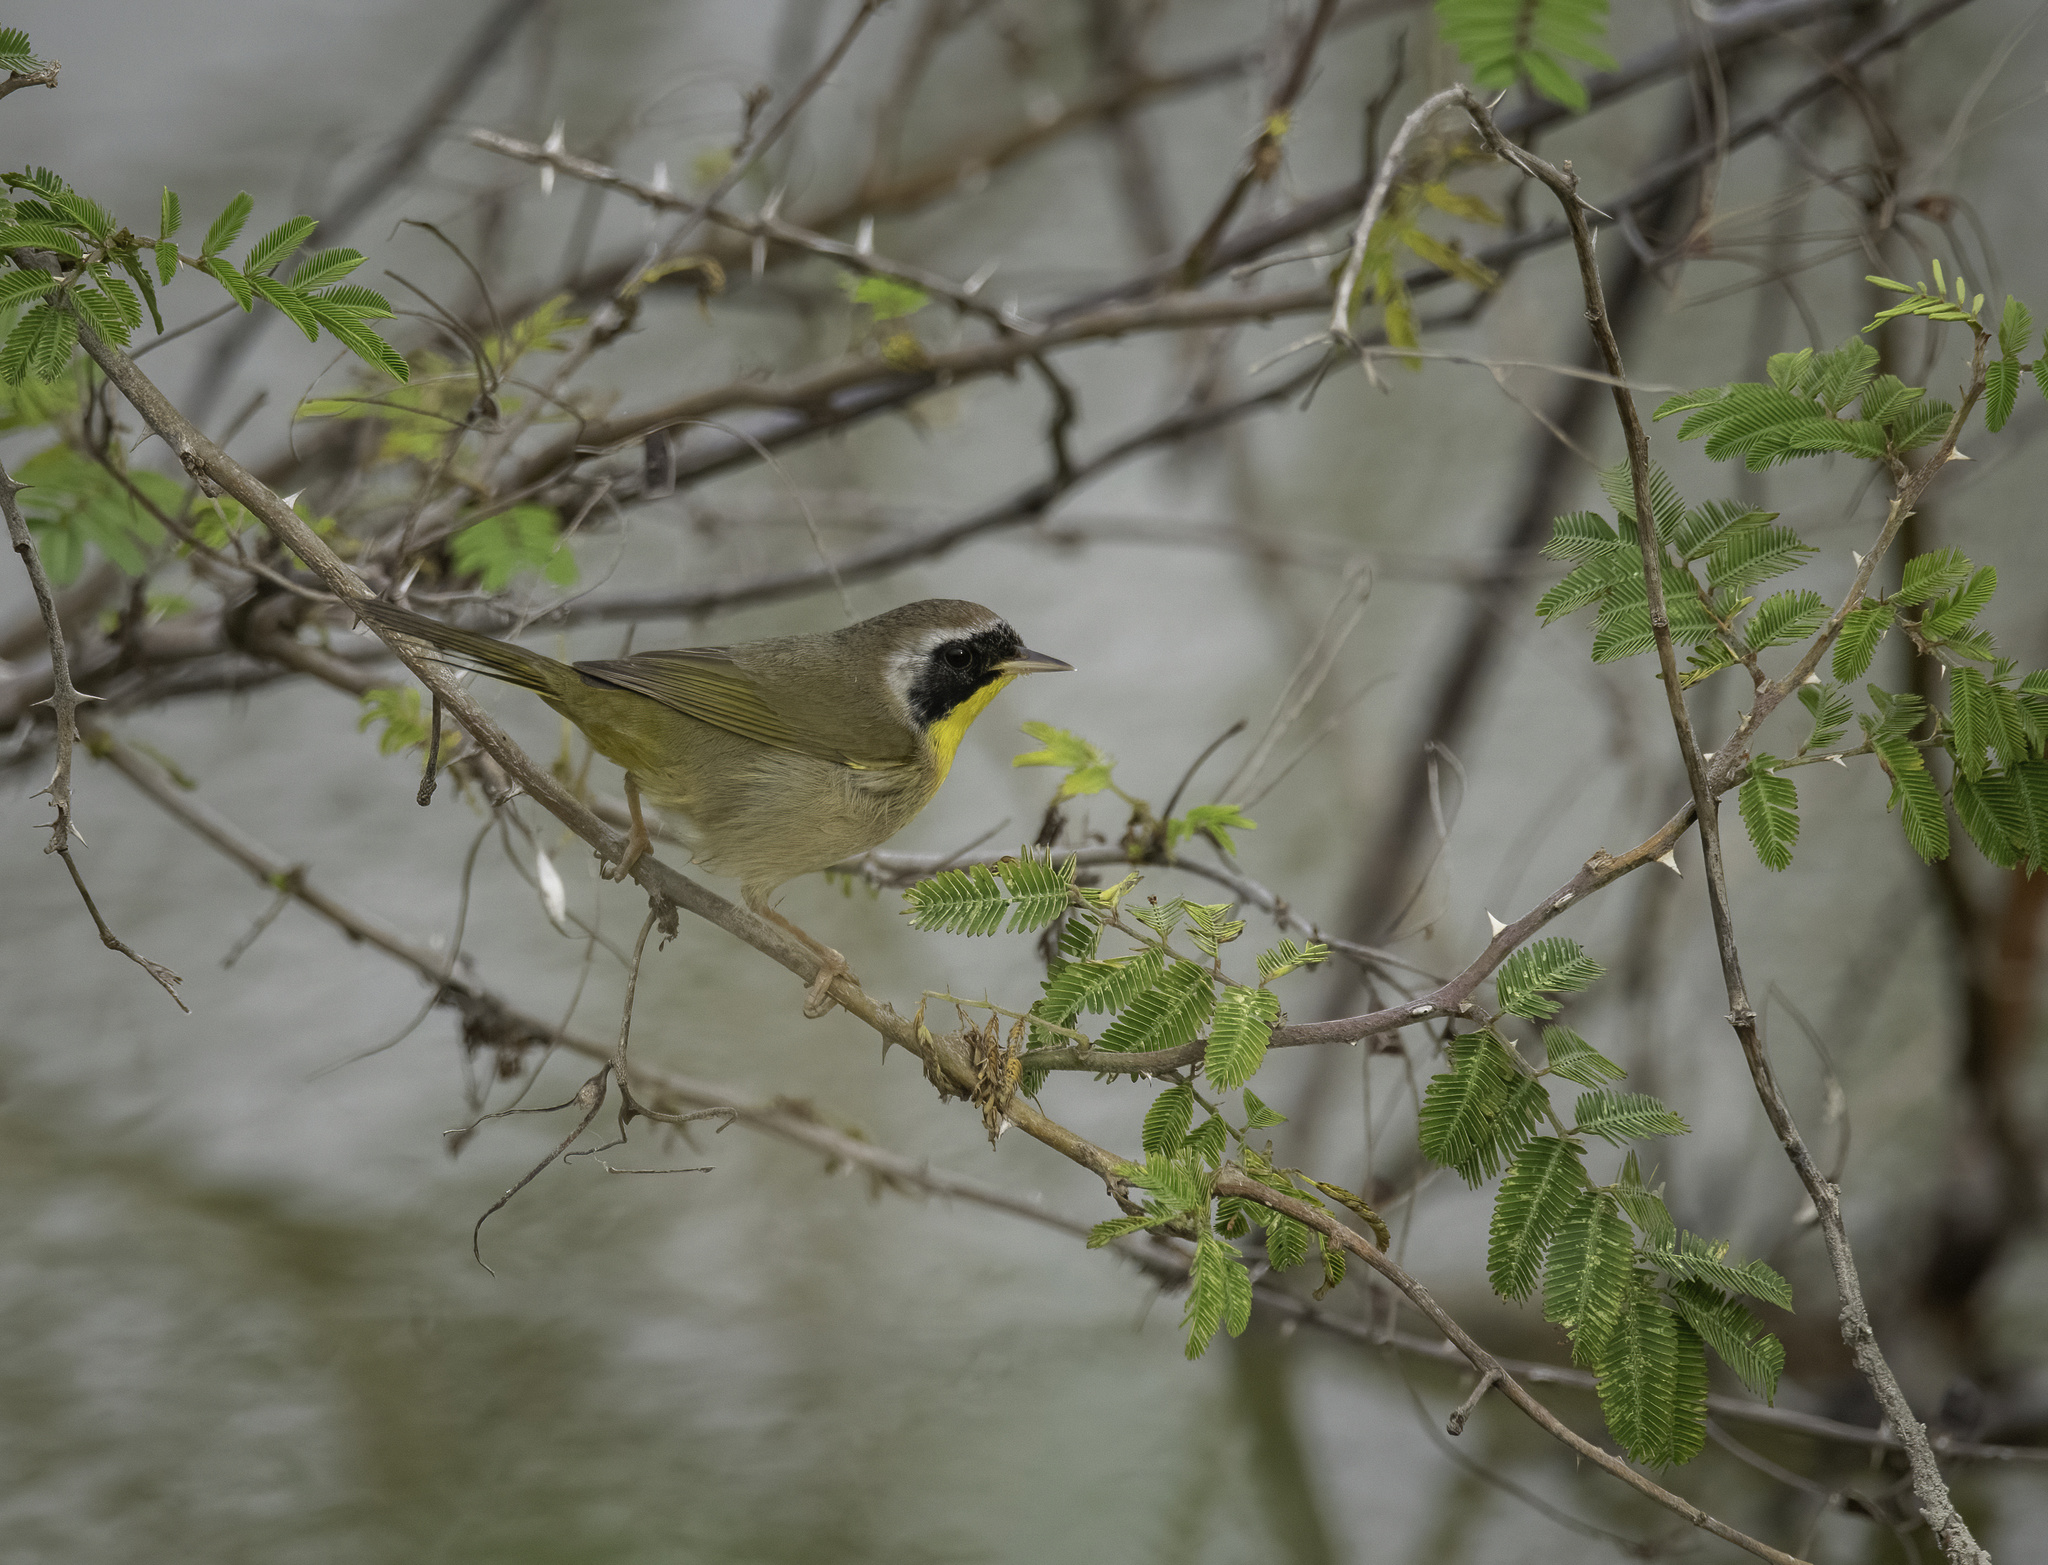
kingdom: Animalia
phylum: Chordata
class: Aves
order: Passeriformes
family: Parulidae
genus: Geothlypis
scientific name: Geothlypis trichas
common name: Common yellowthroat
